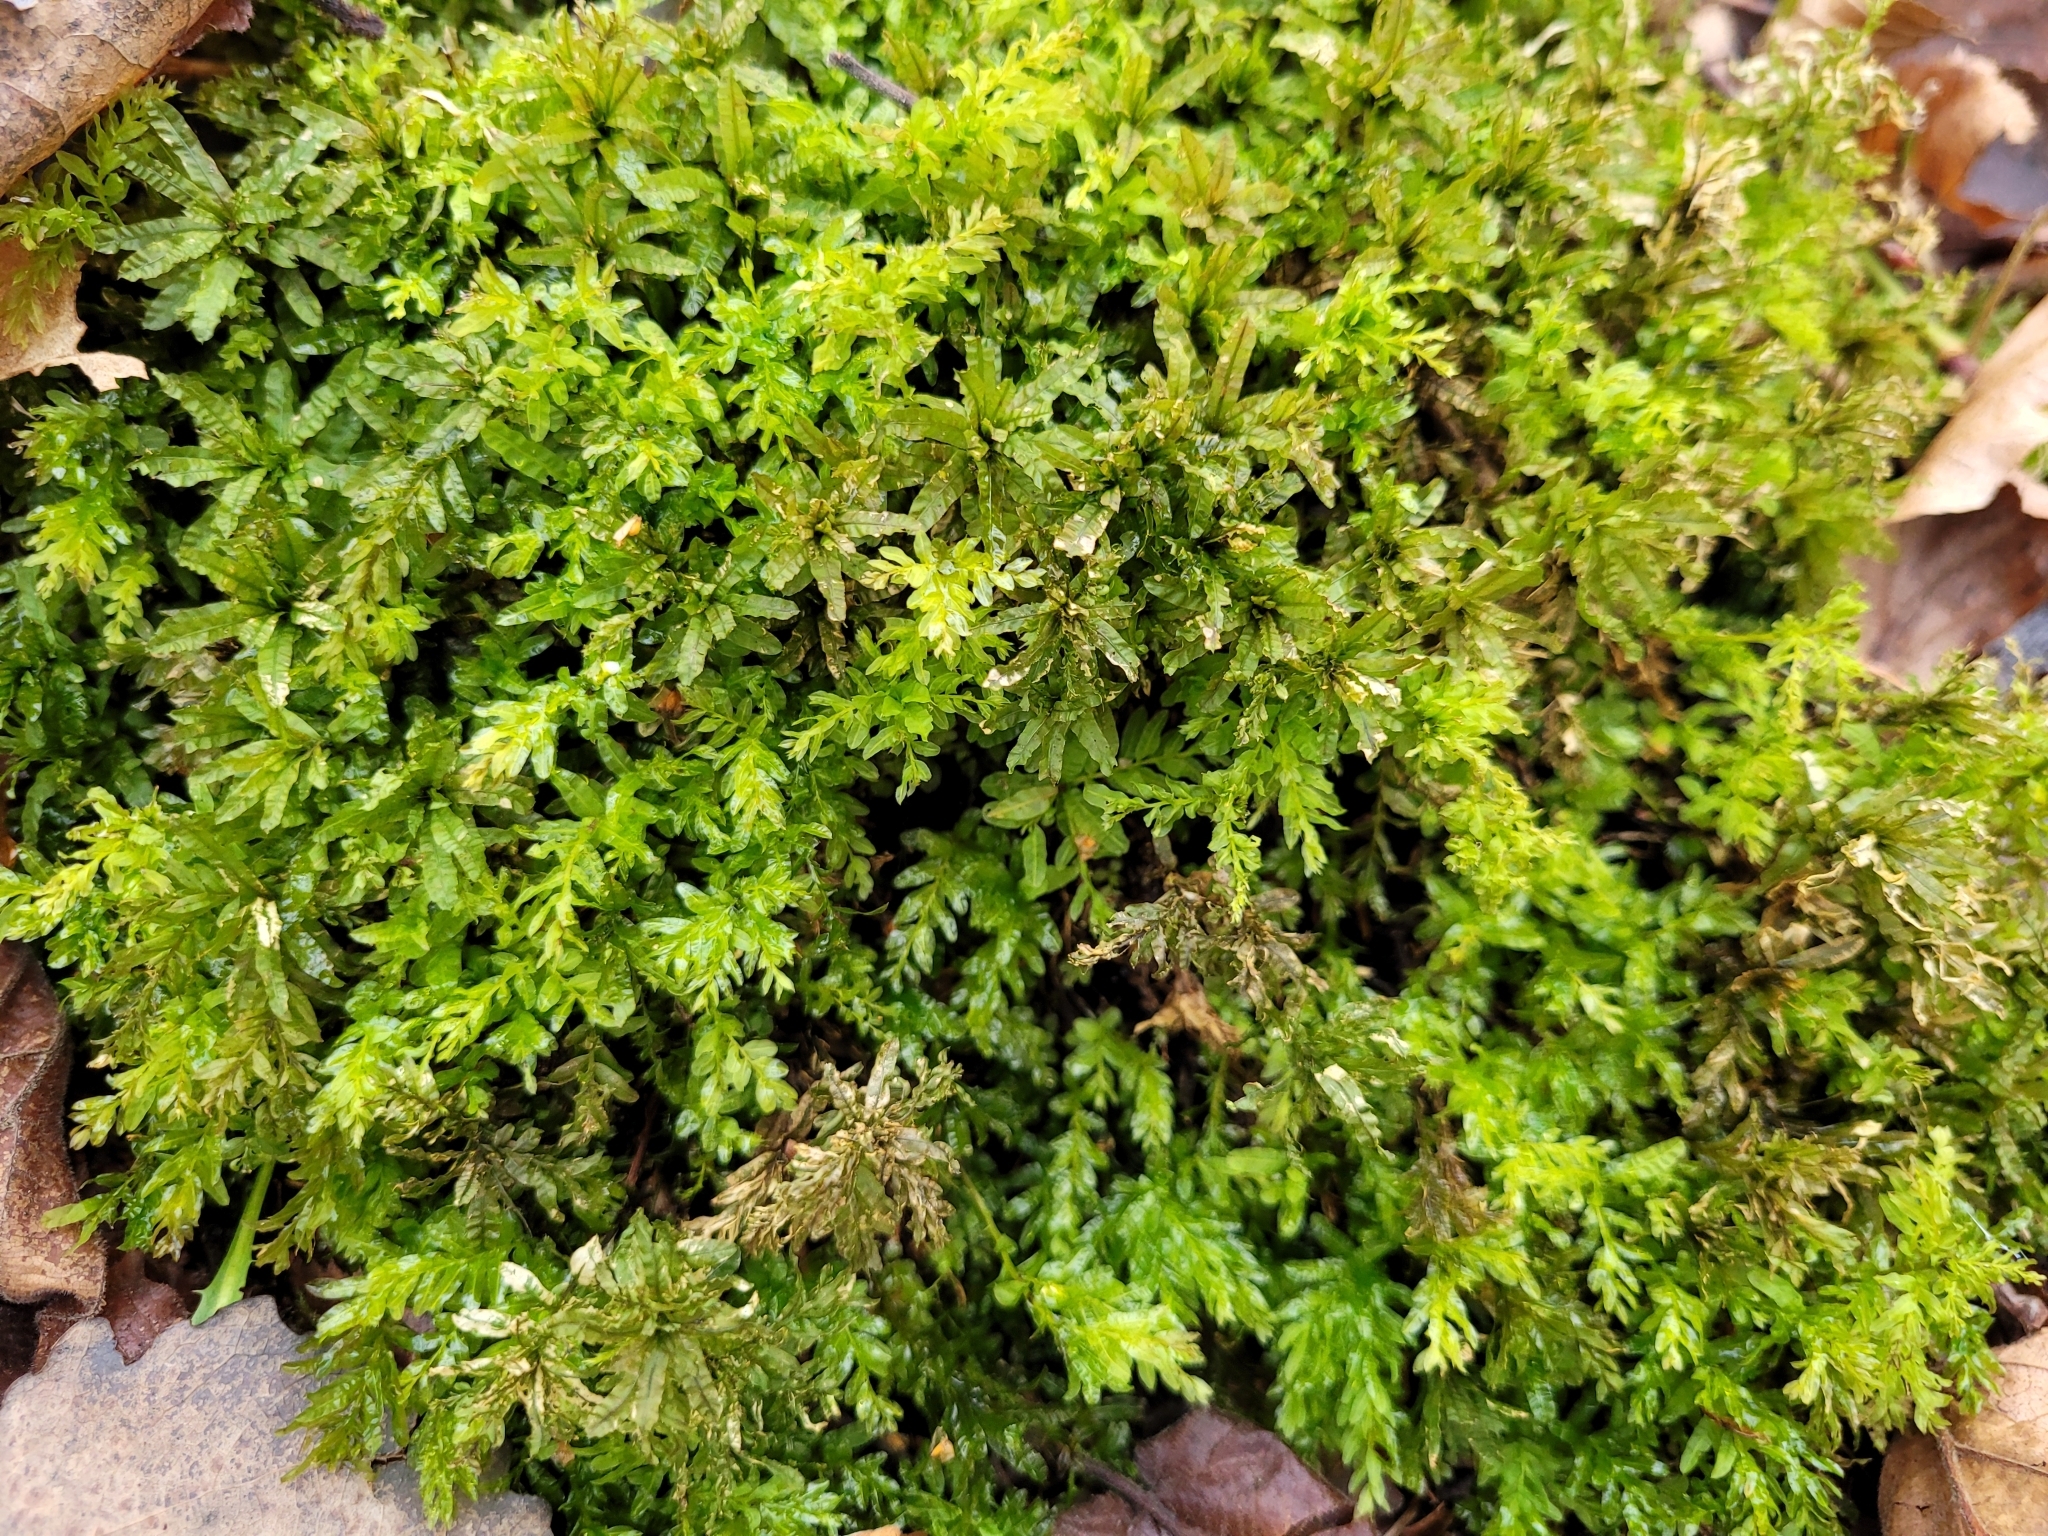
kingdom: Plantae
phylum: Bryophyta
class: Bryopsida
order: Bryales
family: Mniaceae
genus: Plagiomnium
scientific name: Plagiomnium undulatum
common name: Hart's-tongue thyme-moss
